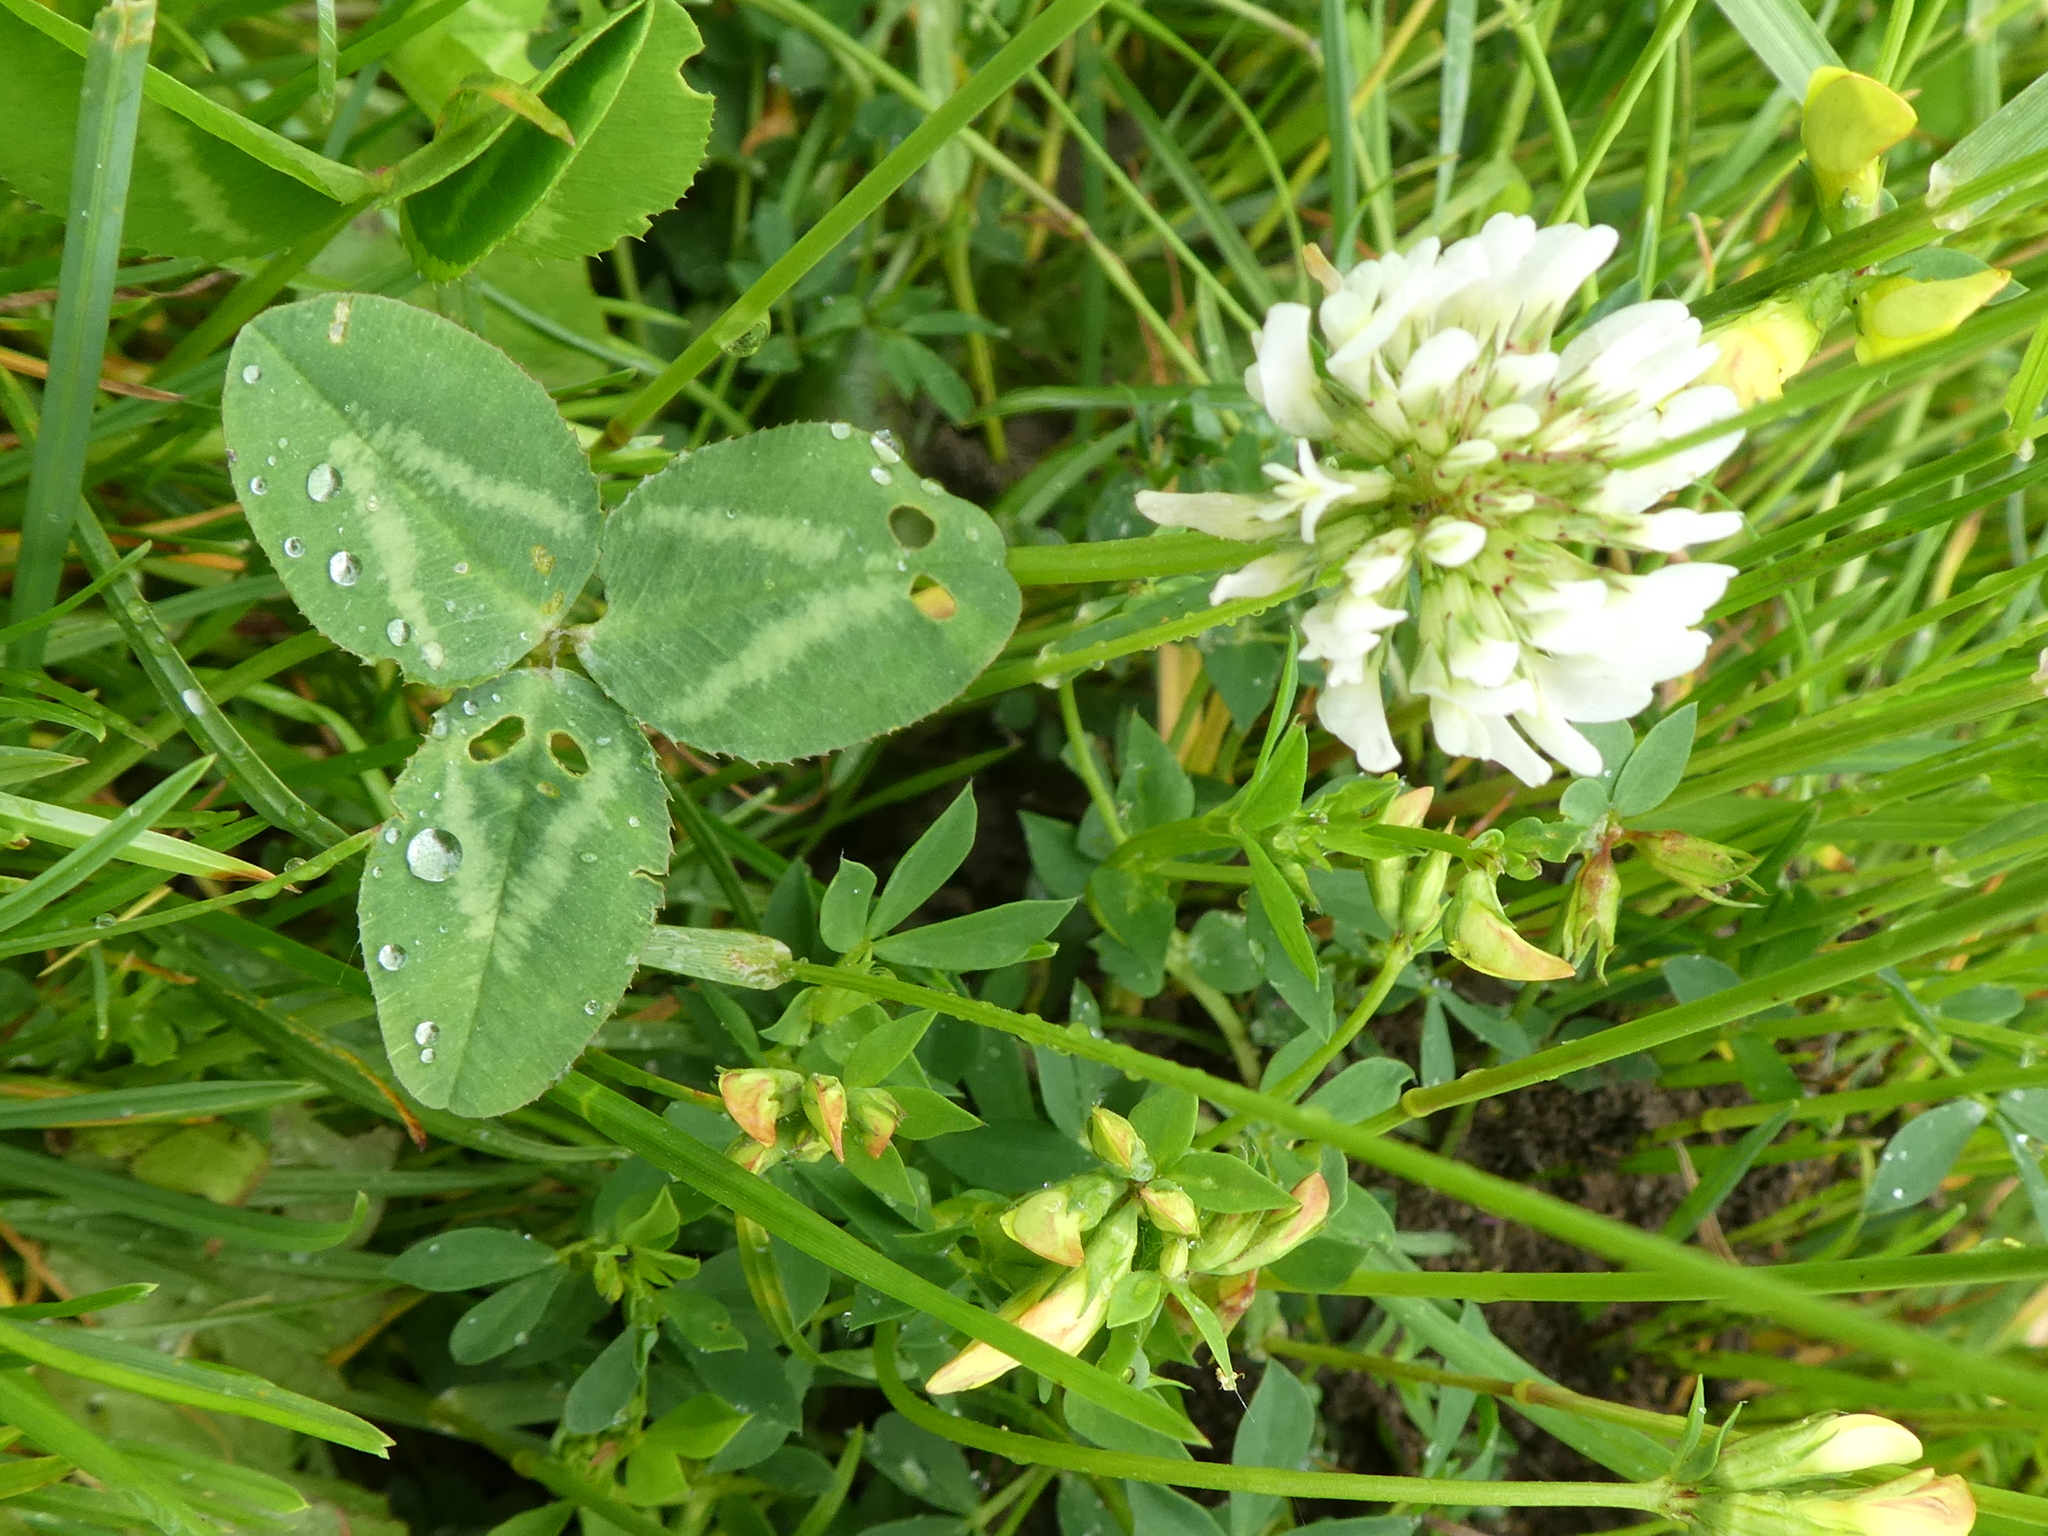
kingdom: Plantae
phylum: Tracheophyta
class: Magnoliopsida
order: Fabales
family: Fabaceae
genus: Trifolium
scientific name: Trifolium repens
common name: White clover
